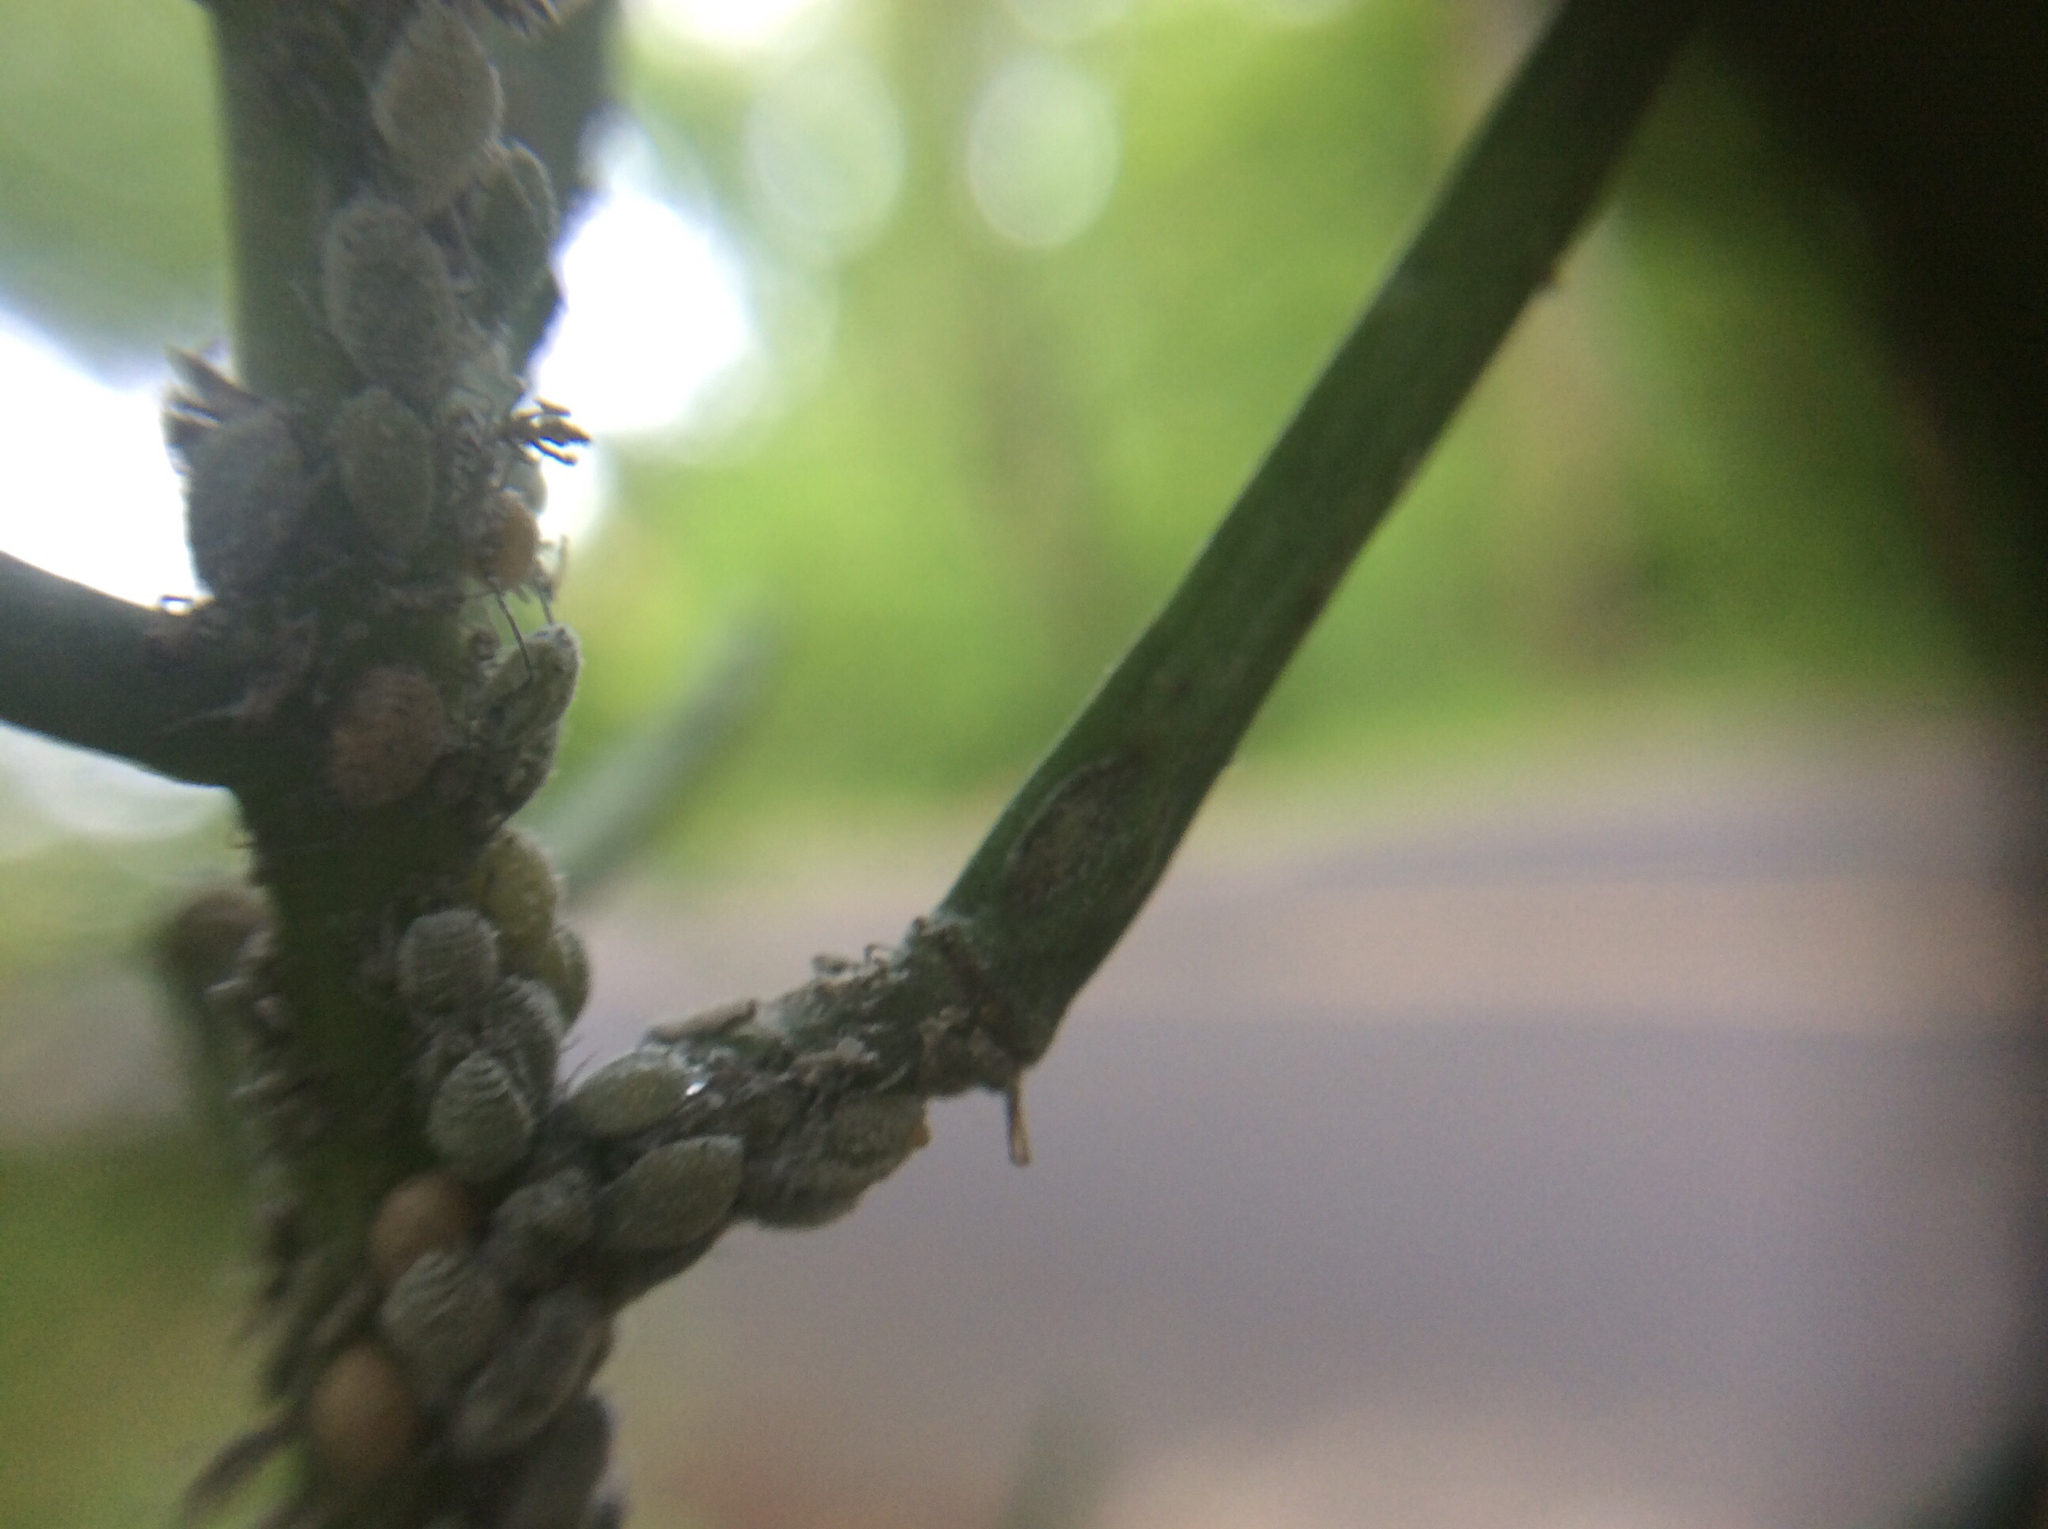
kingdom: Animalia
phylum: Arthropoda
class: Insecta
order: Hemiptera
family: Aphididae
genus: Brevicoryne
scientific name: Brevicoryne brassicae
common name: Cabbage aphid
